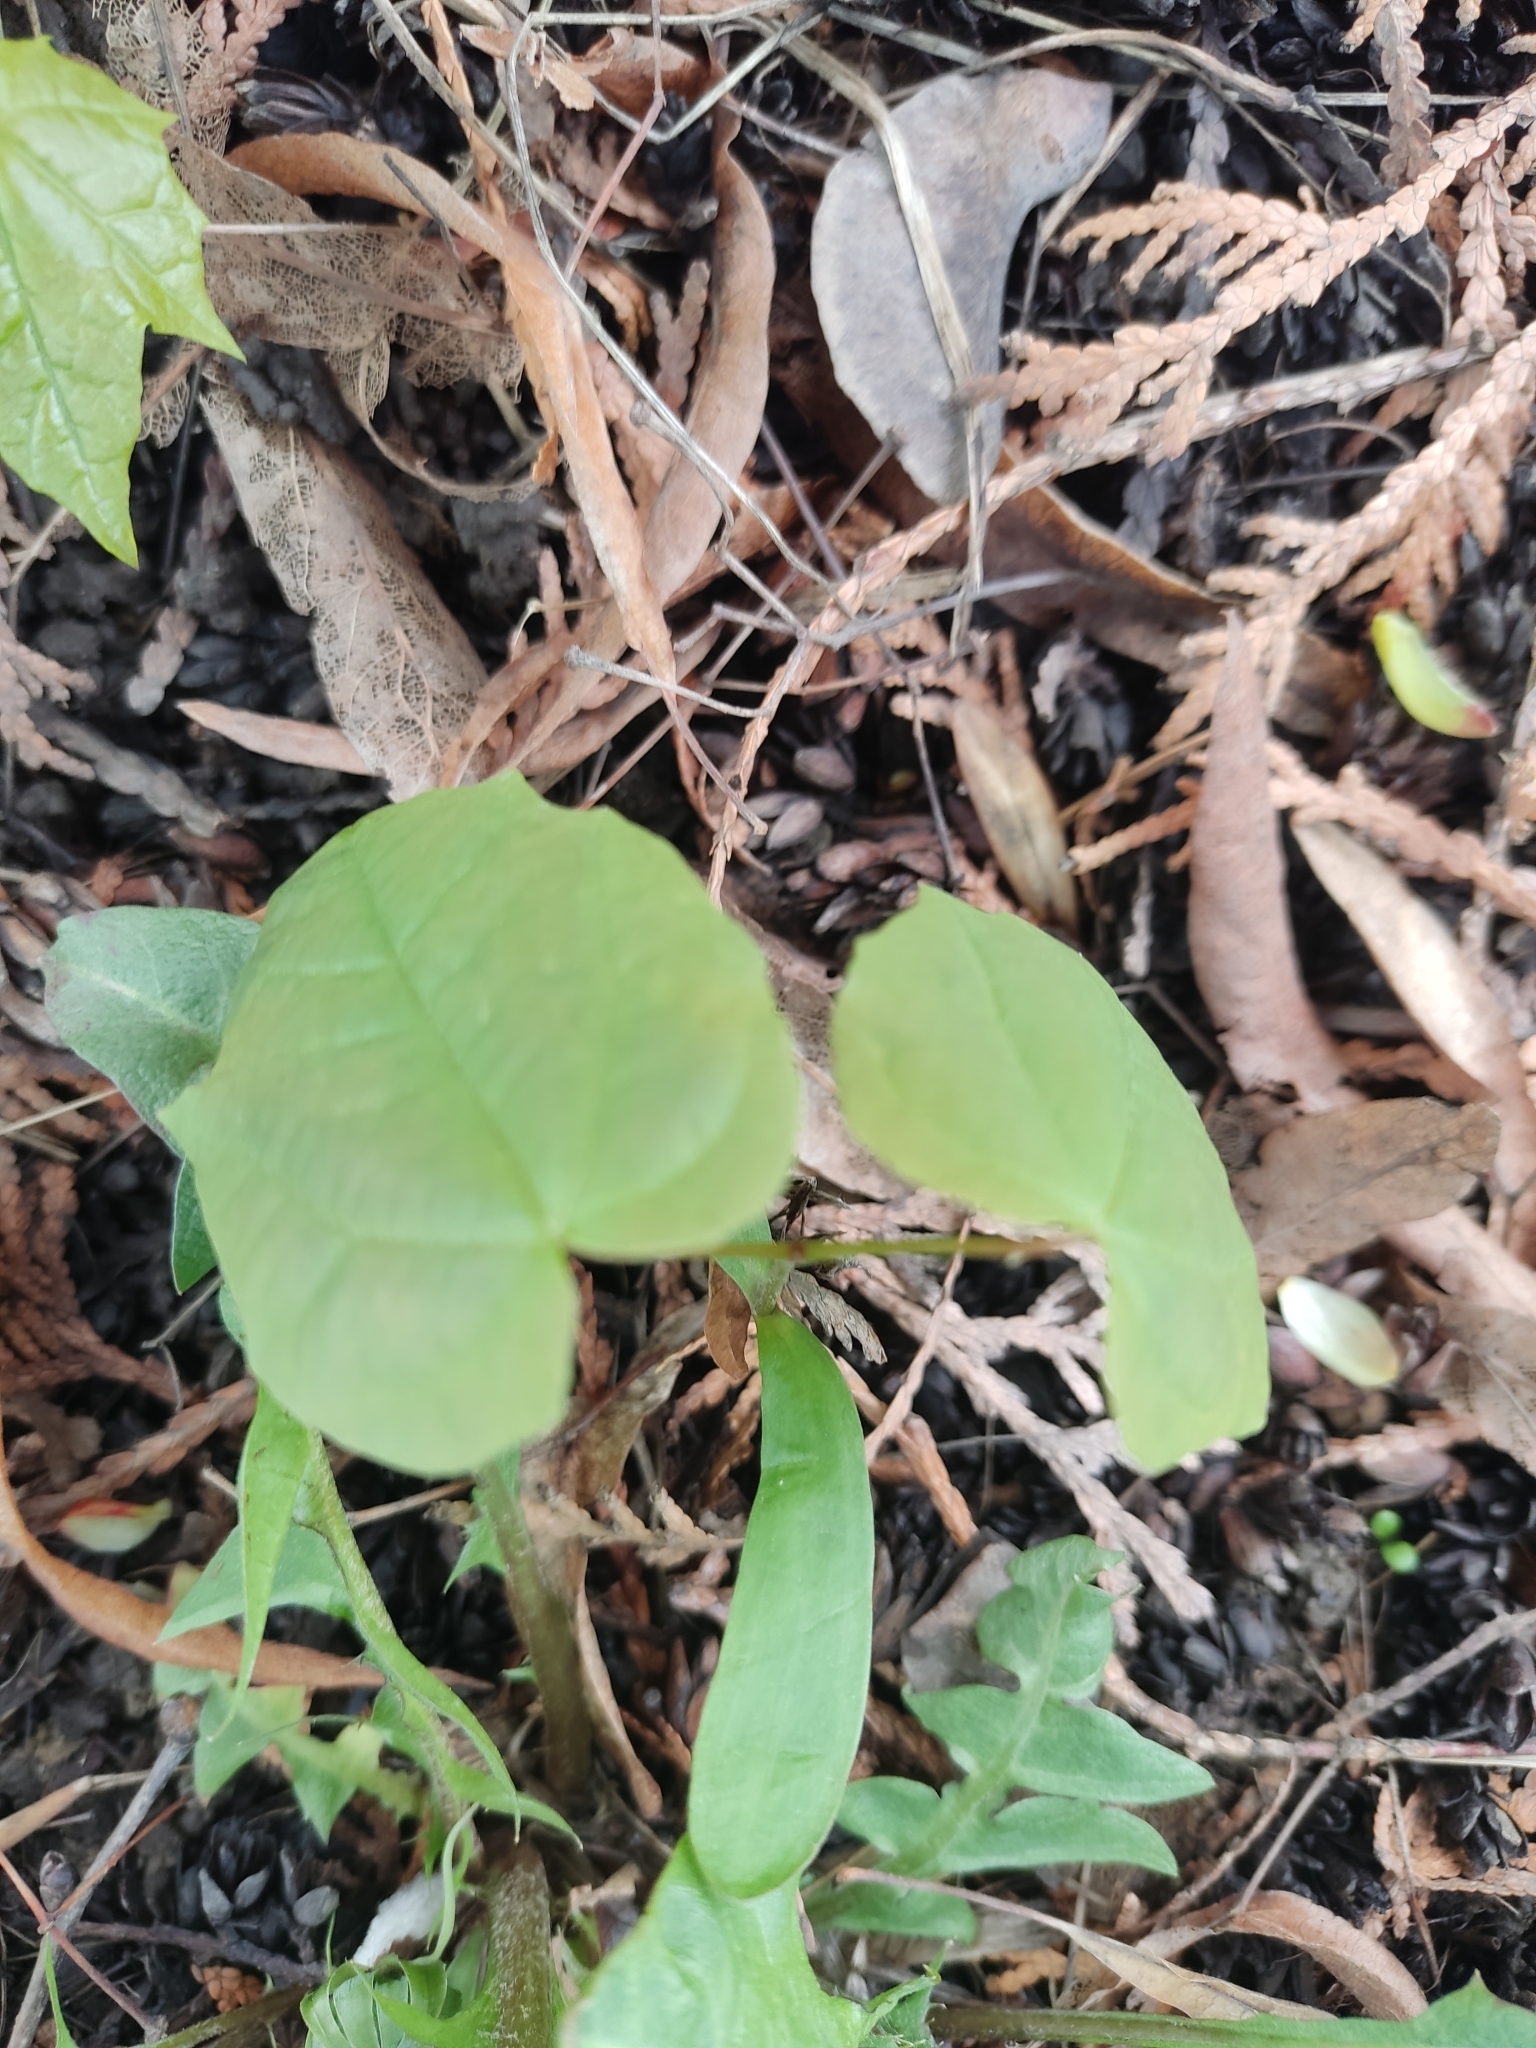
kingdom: Plantae
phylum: Tracheophyta
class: Magnoliopsida
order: Sapindales
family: Sapindaceae
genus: Acer
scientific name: Acer platanoides
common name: Norway maple
